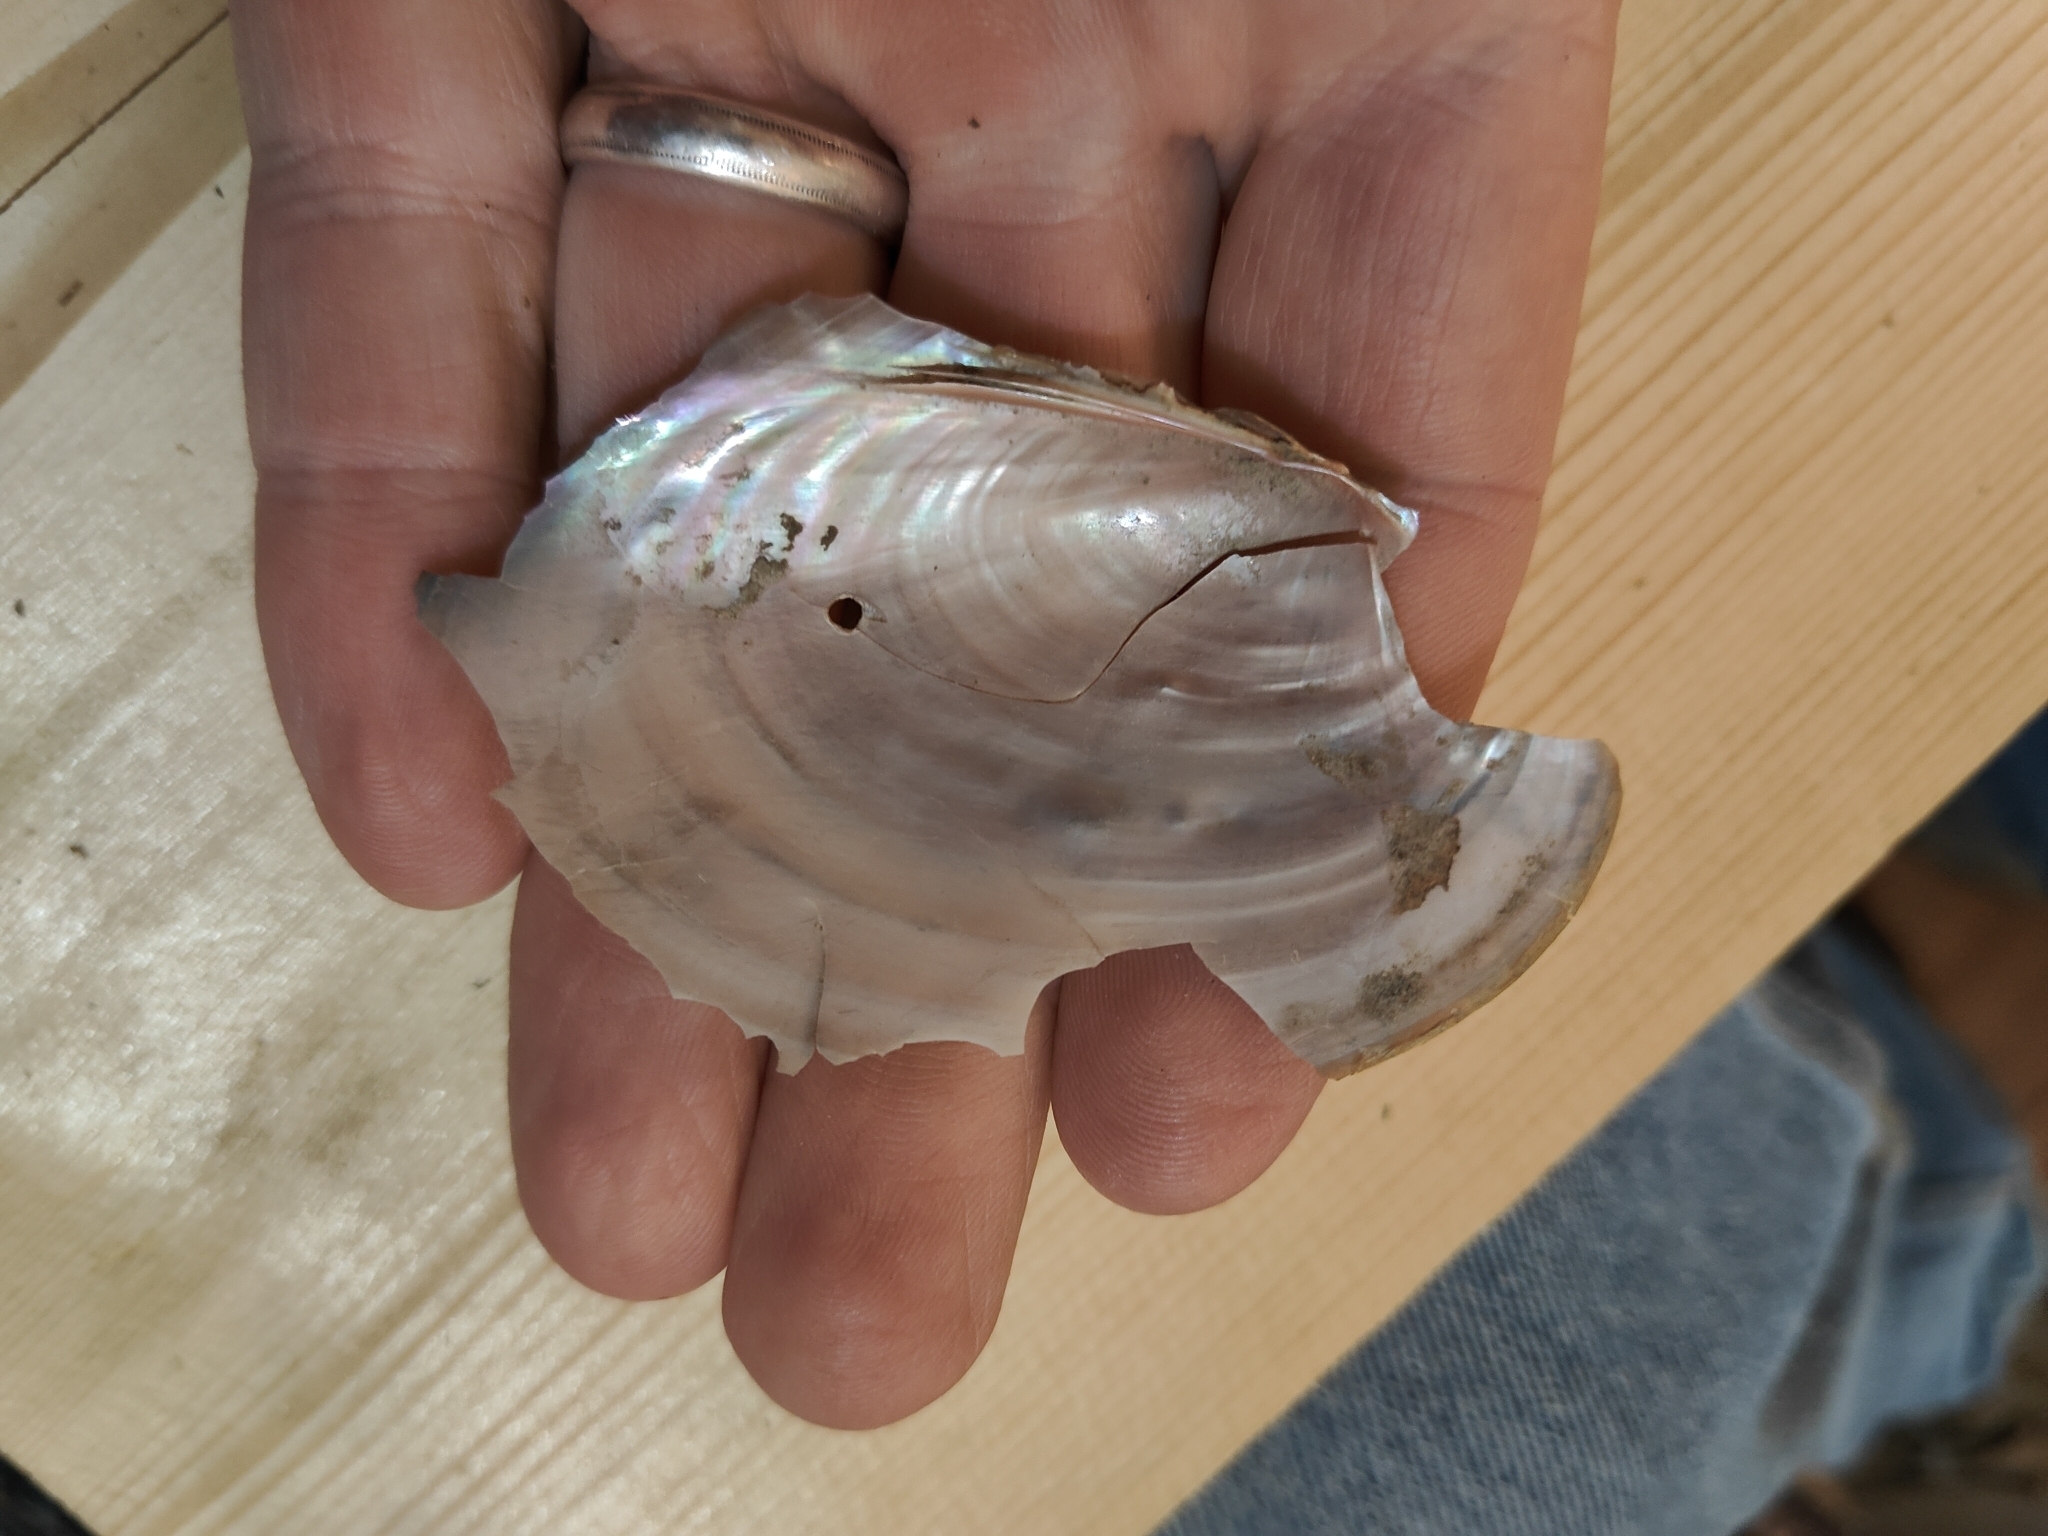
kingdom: Animalia
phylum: Mollusca
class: Bivalvia
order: Unionida
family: Unionidae
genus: Potamilus
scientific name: Potamilus ohiensis
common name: Pink papershell
